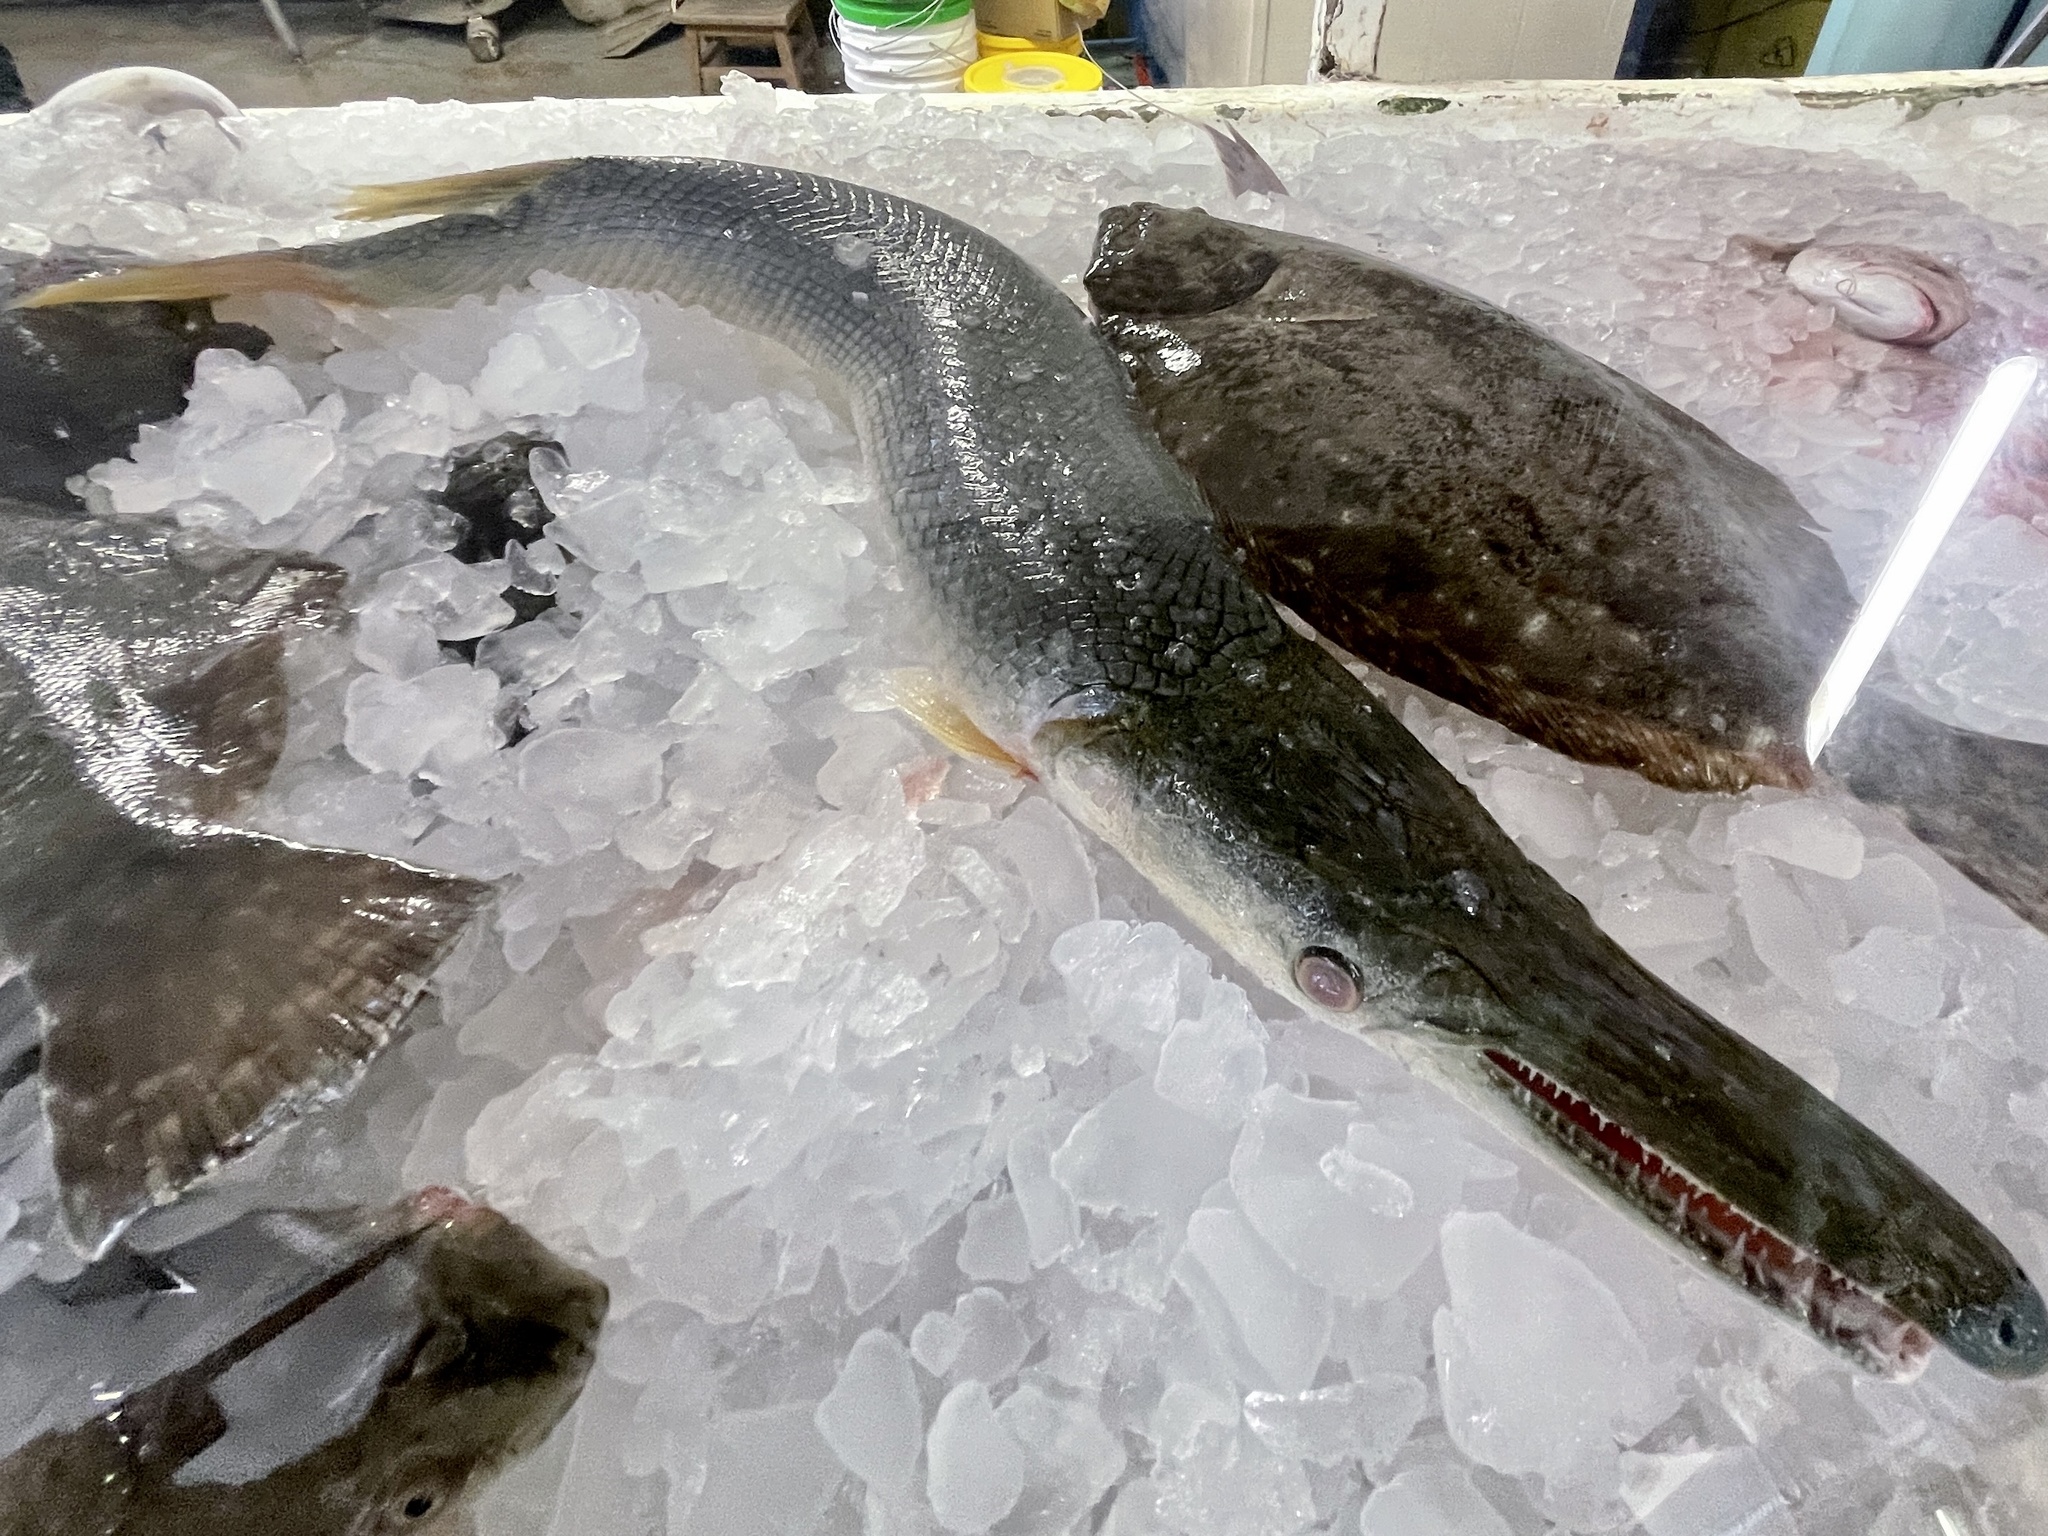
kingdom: Animalia
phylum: Chordata
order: Lepisosteiformes
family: Lepisosteidae
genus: Atractosteus
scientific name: Atractosteus spatula
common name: Alligator gar
